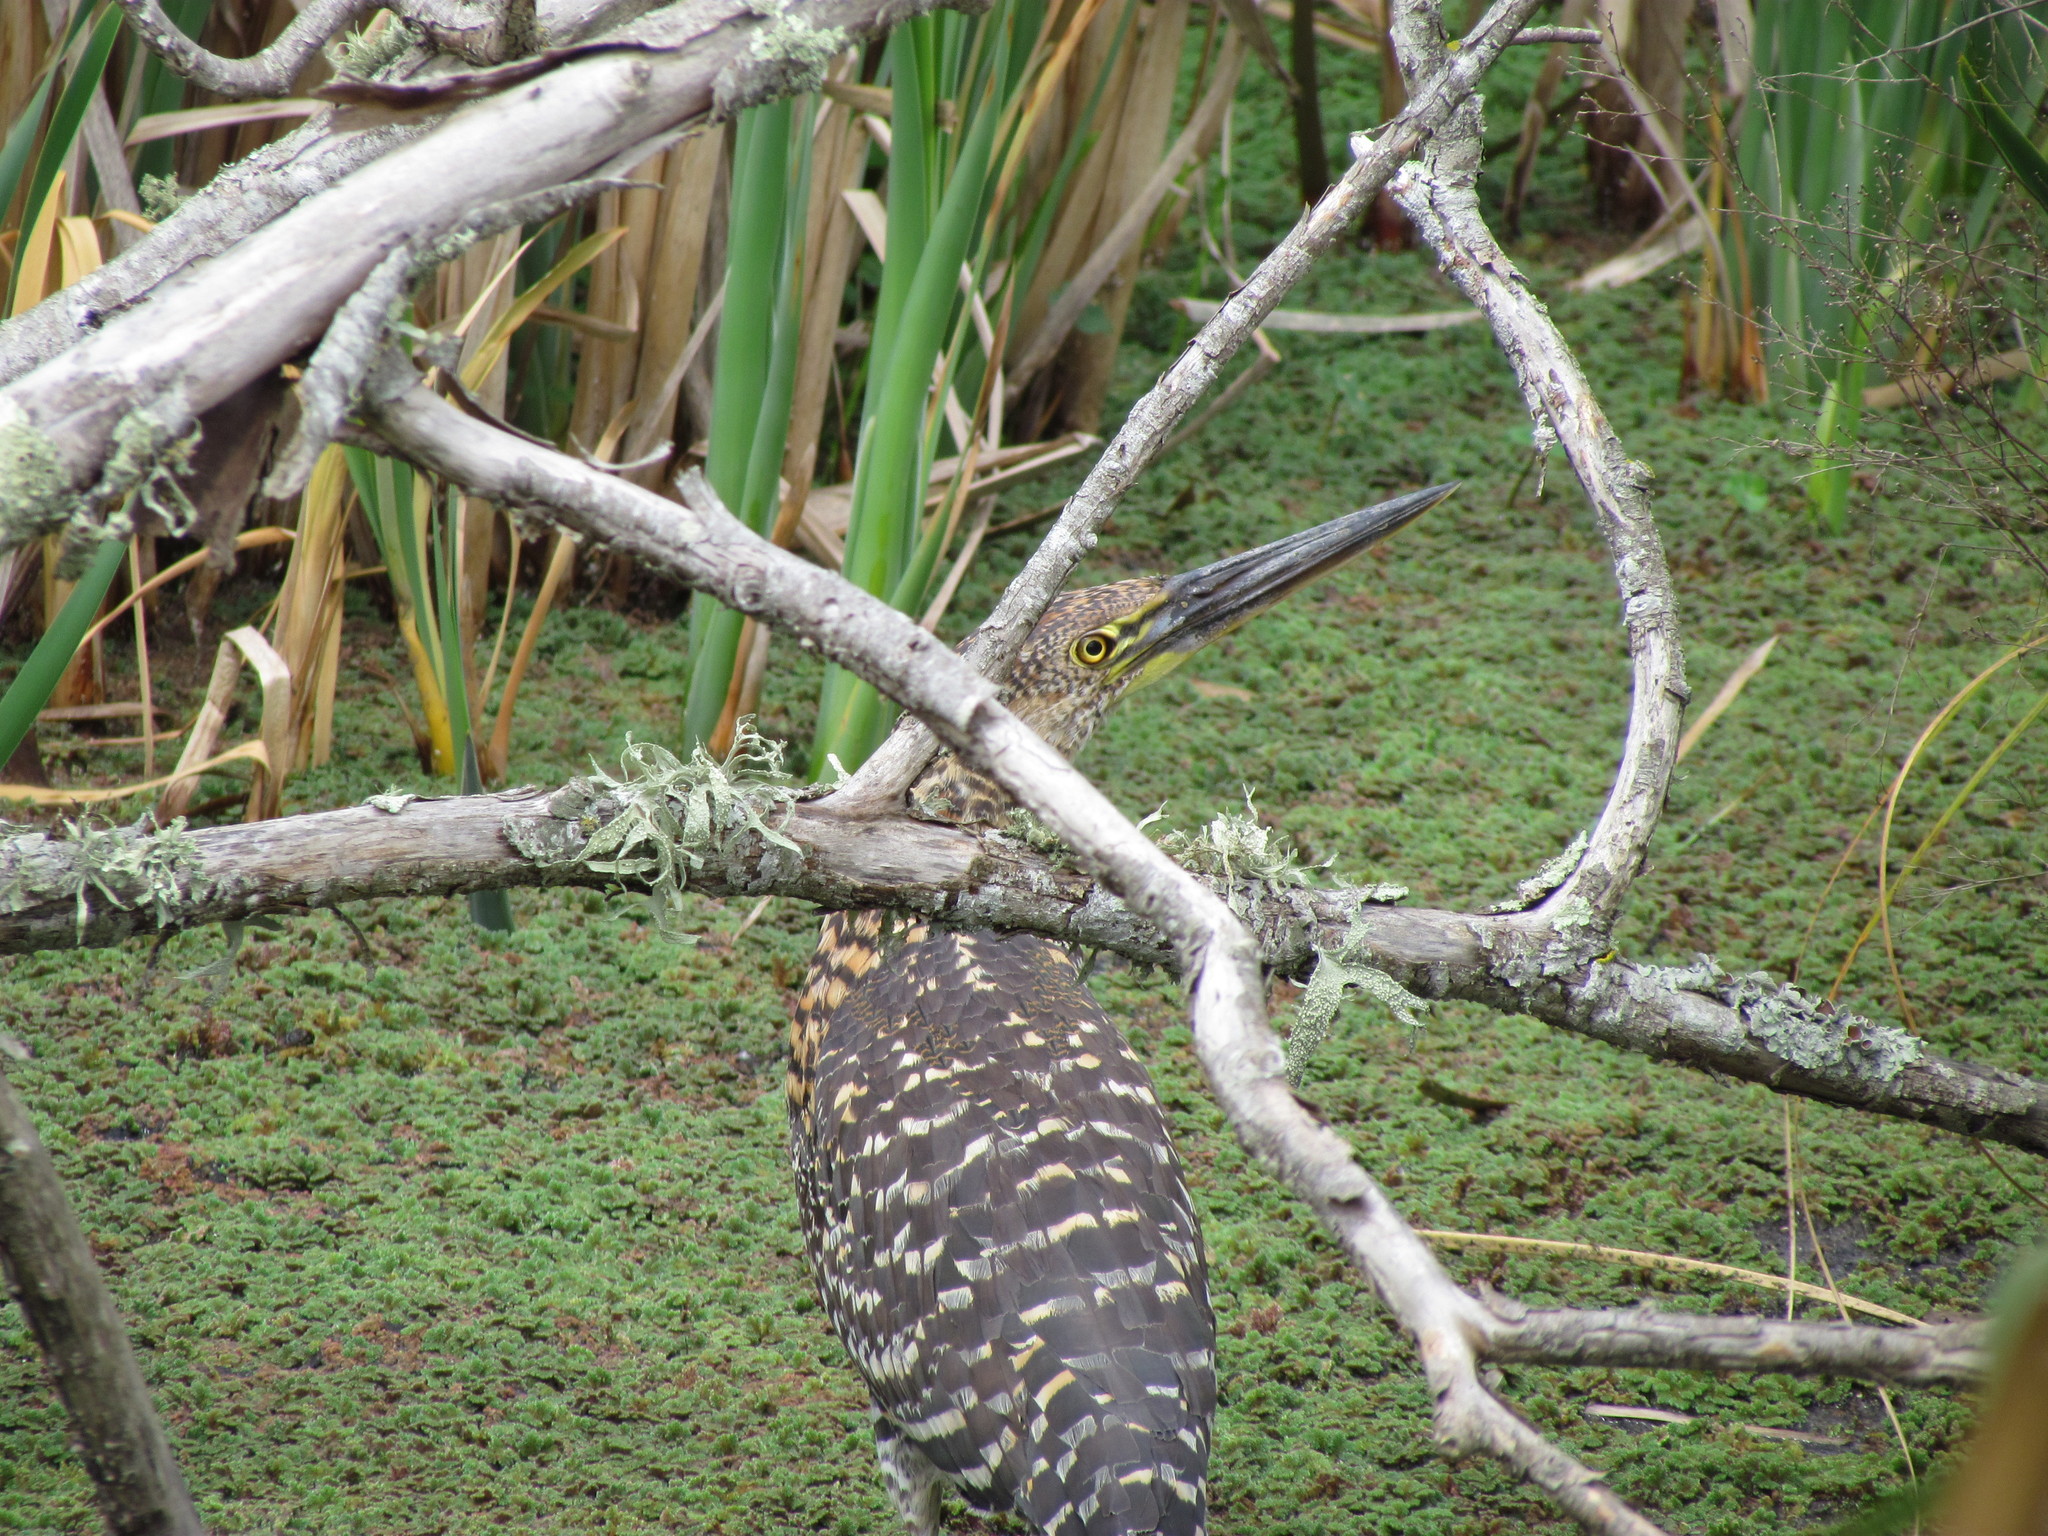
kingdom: Animalia
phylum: Chordata
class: Aves
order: Pelecaniformes
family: Ardeidae
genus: Tigrisoma
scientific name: Tigrisoma lineatum
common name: Rufescent tiger-heron
